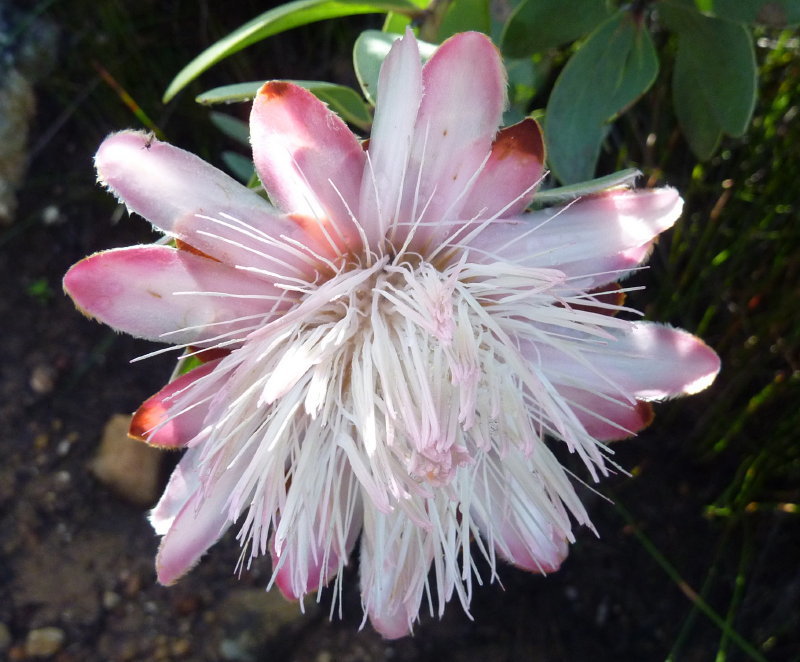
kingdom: Plantae
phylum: Tracheophyta
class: Magnoliopsida
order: Proteales
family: Proteaceae
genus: Protea
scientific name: Protea punctata
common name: Water sugarbush
